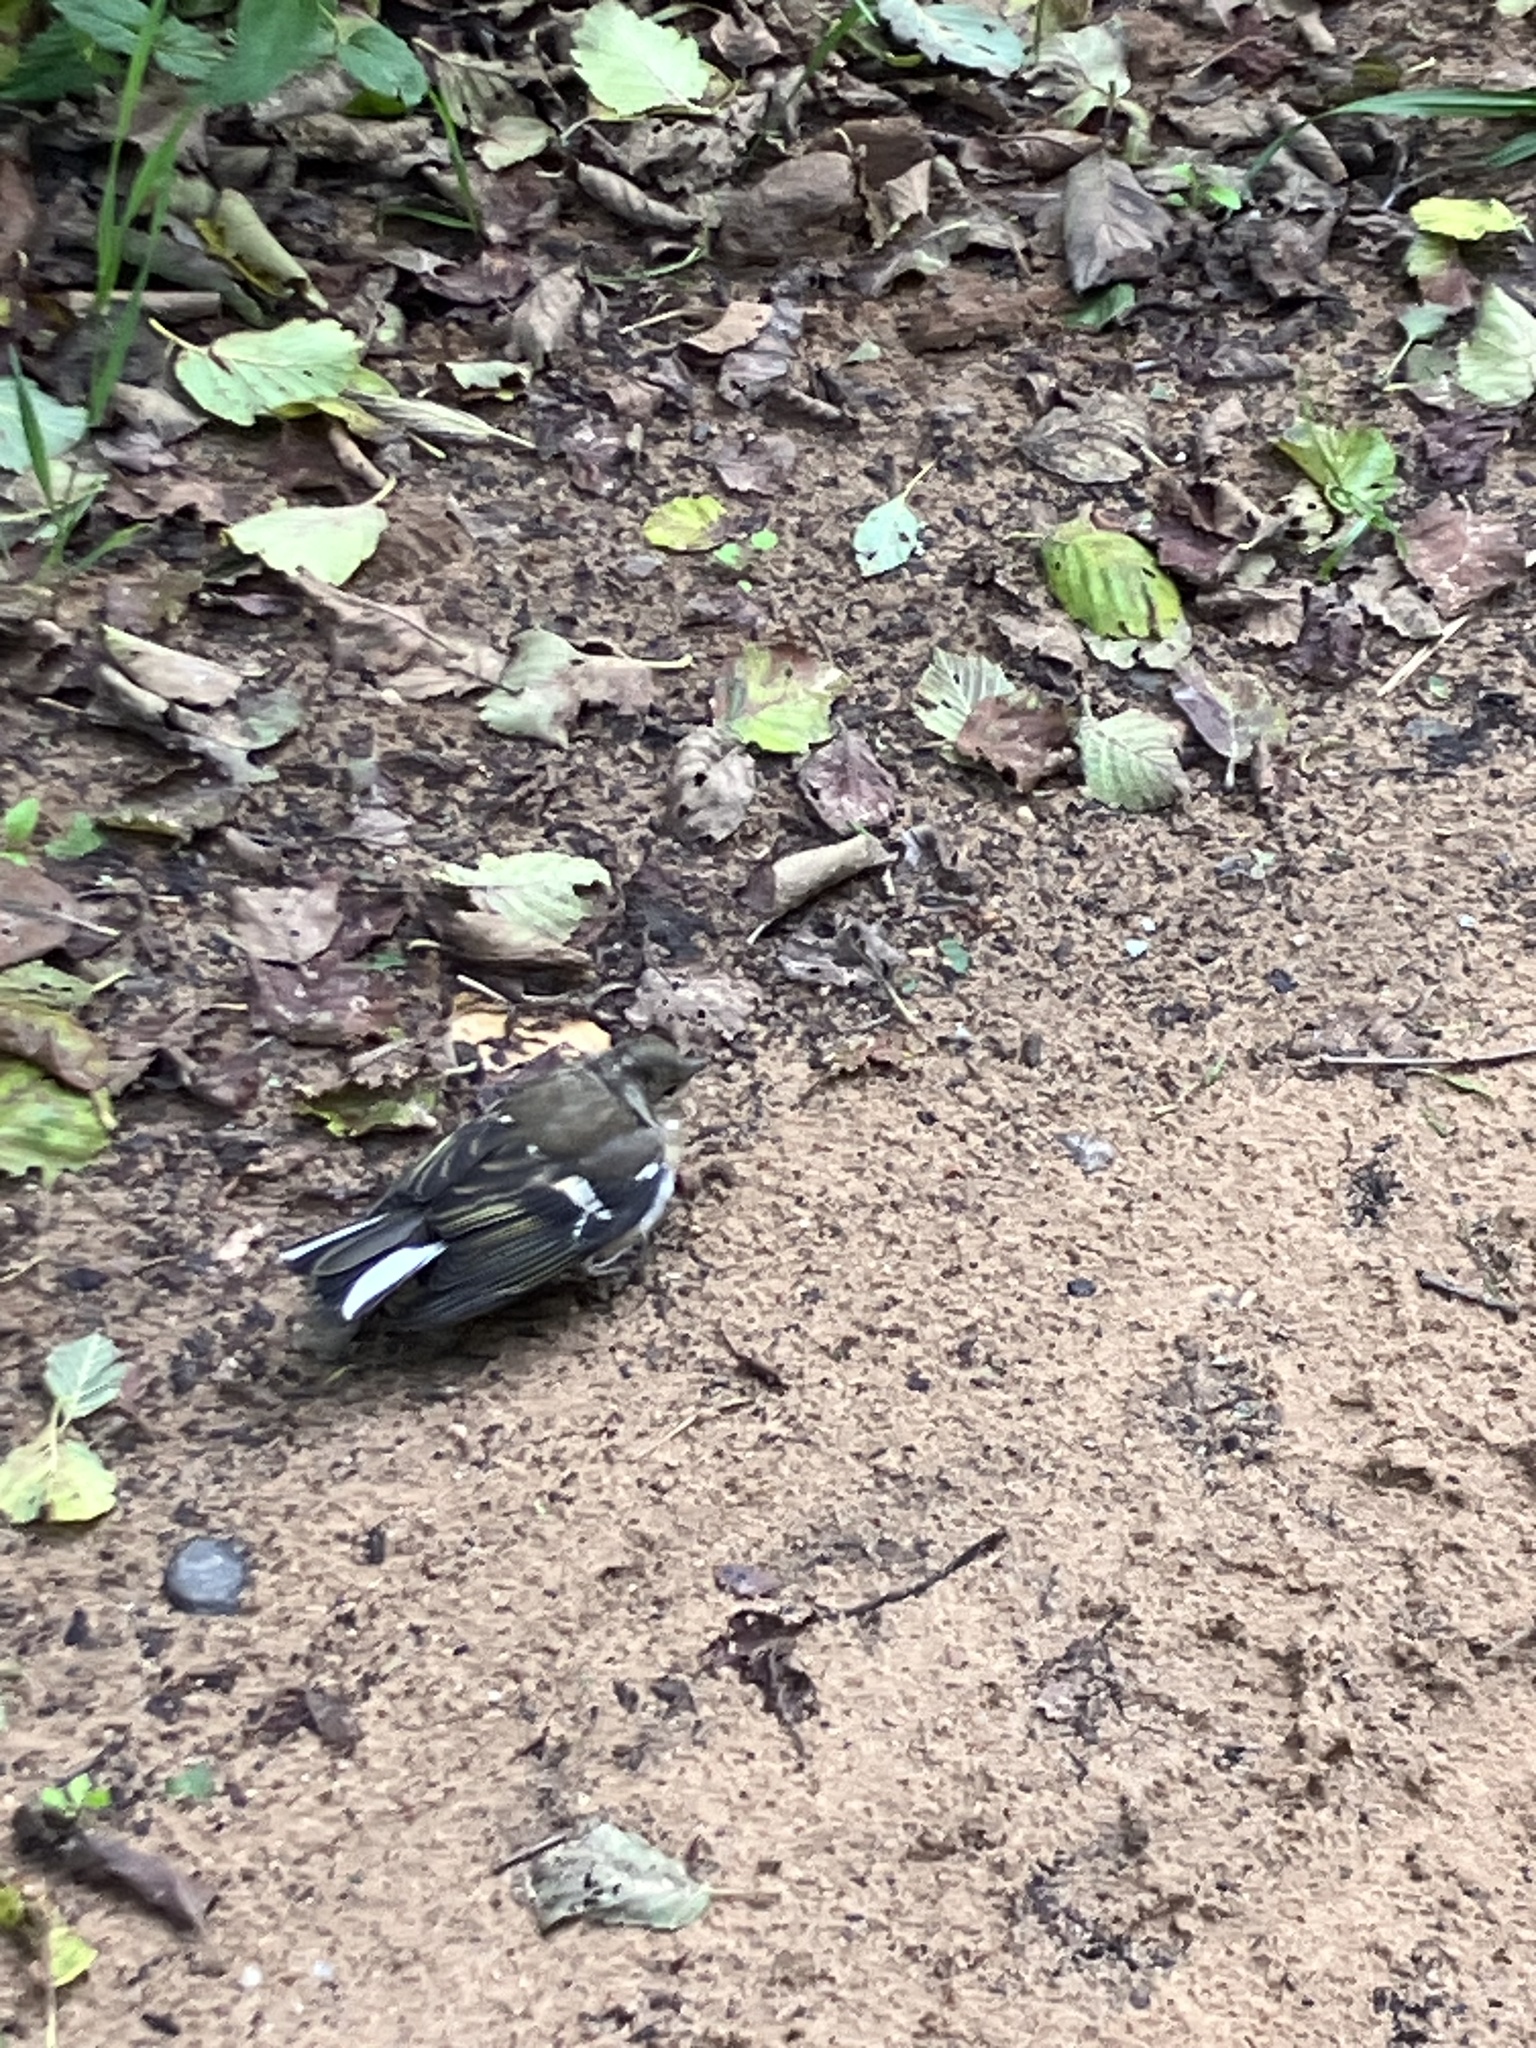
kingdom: Animalia
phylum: Chordata
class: Aves
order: Passeriformes
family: Fringillidae
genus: Fringilla
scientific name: Fringilla coelebs
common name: Common chaffinch
